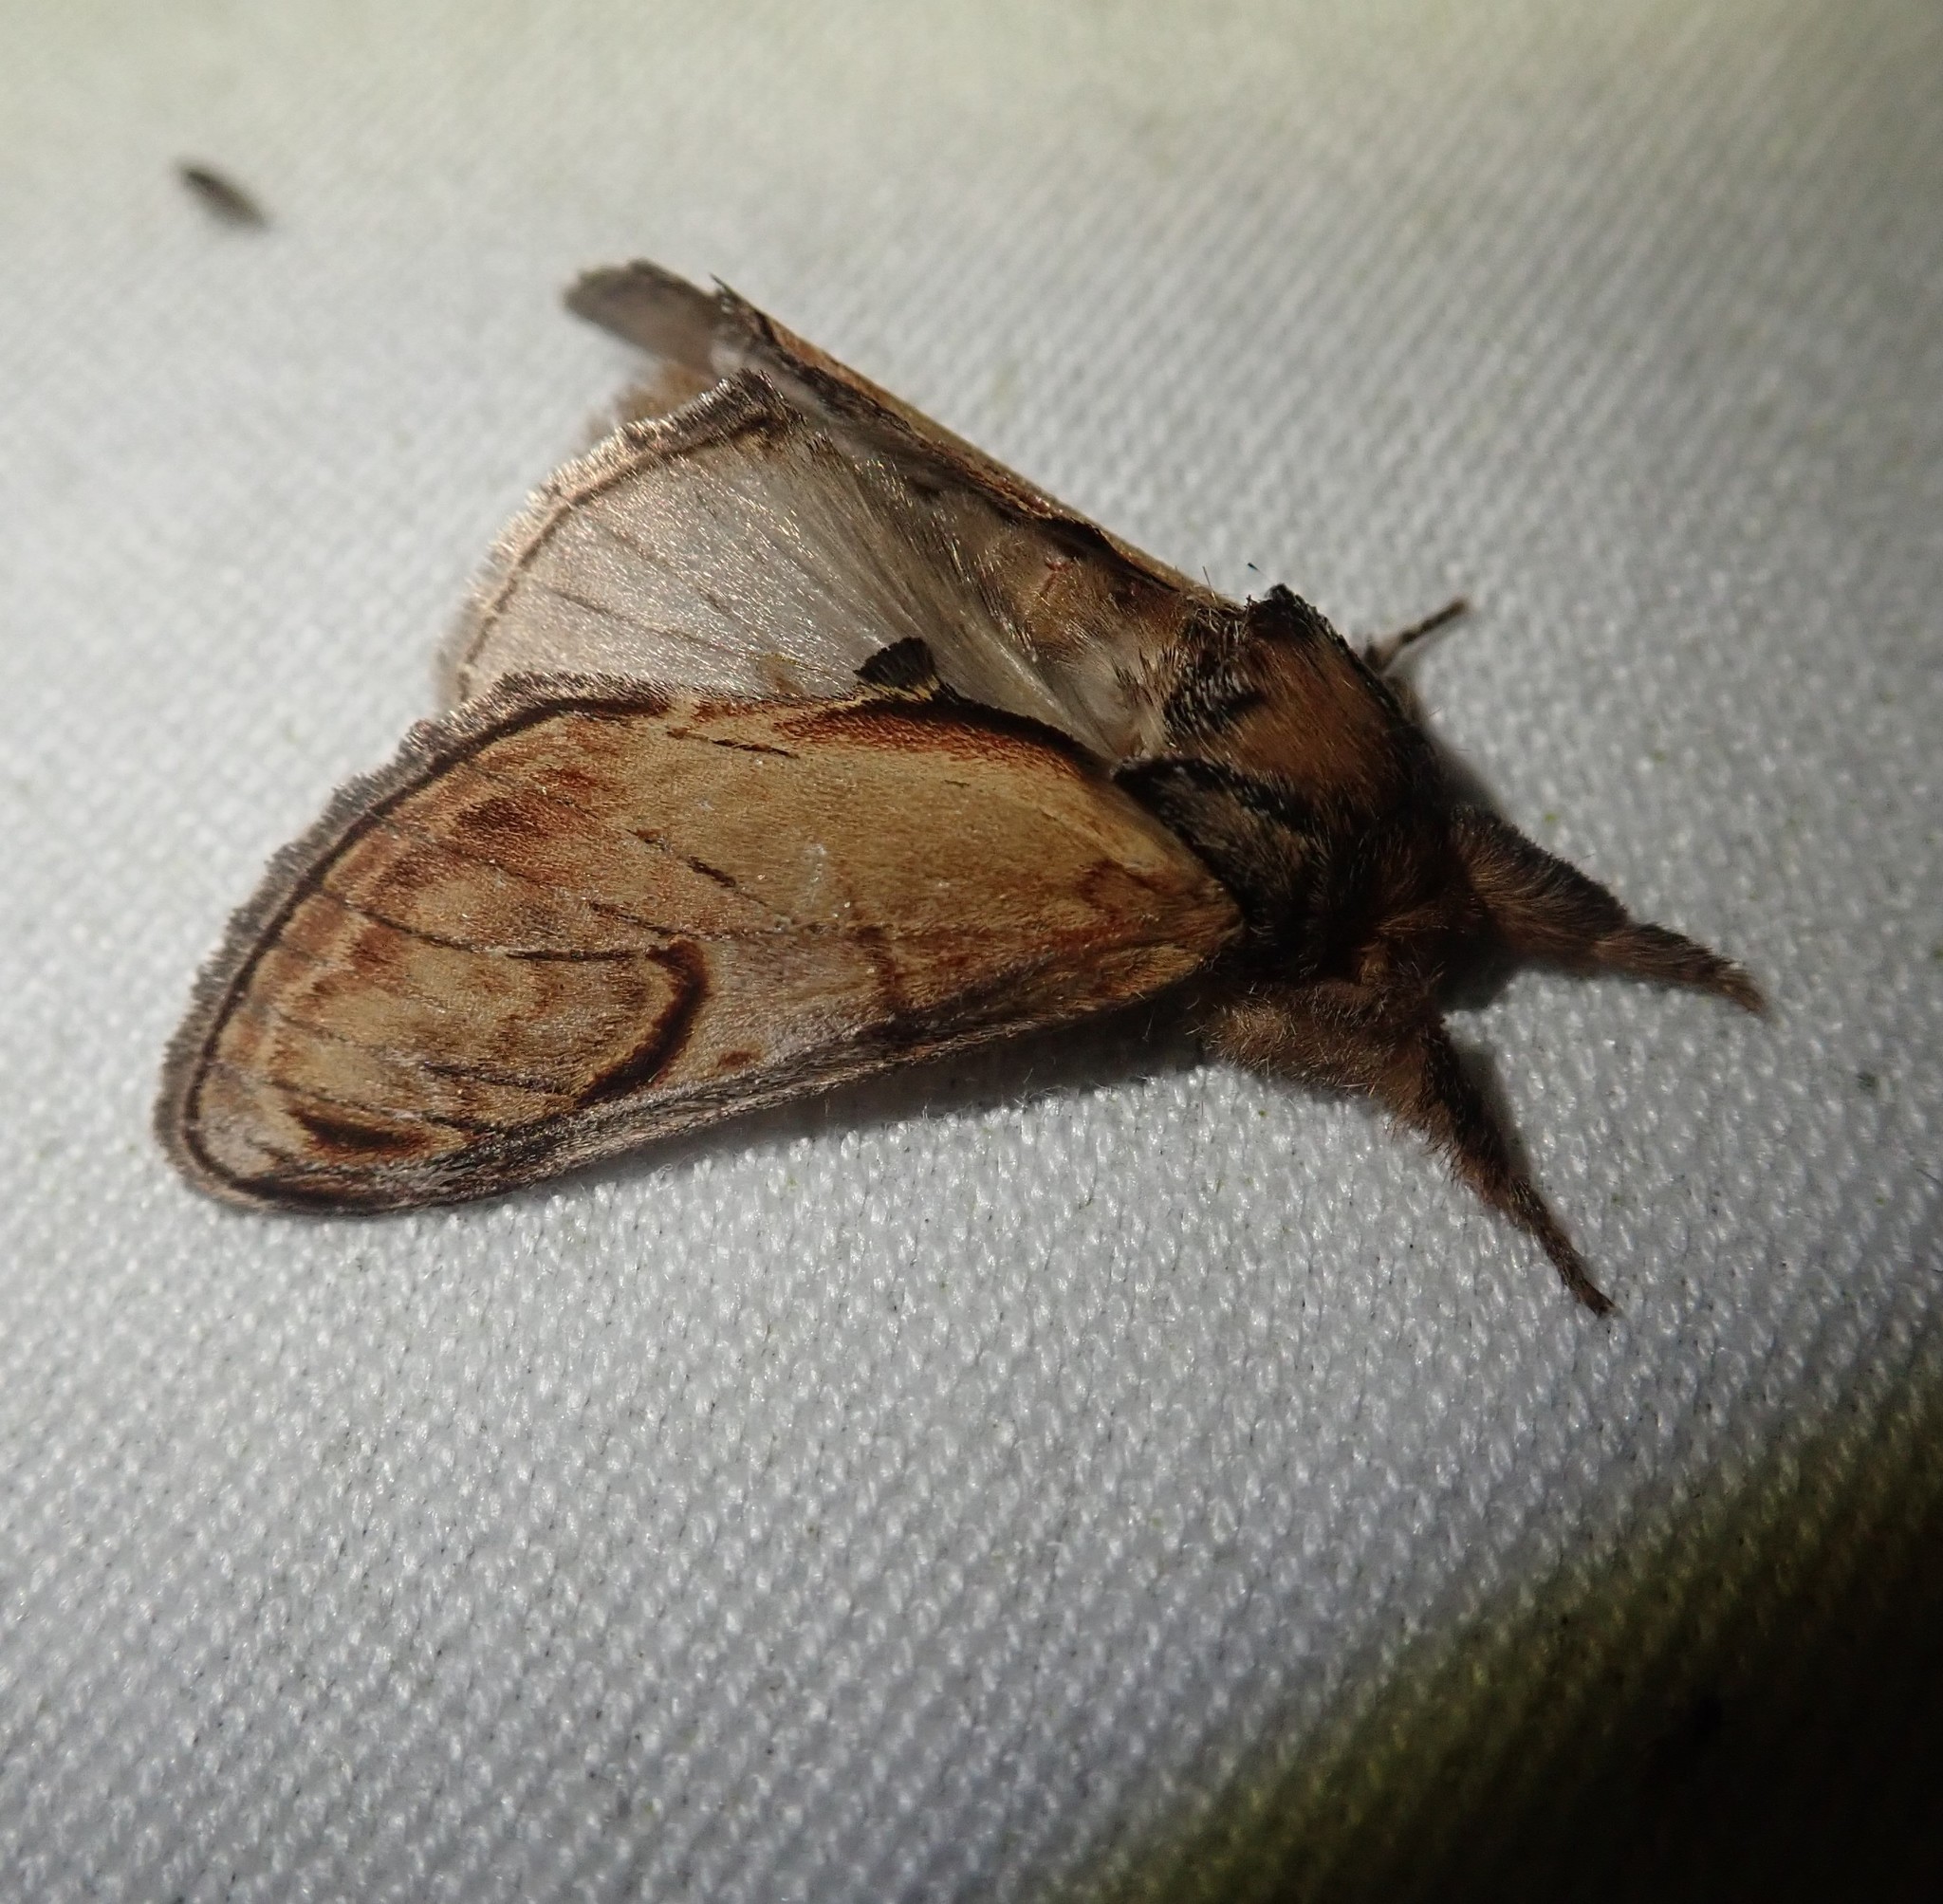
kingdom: Animalia
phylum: Arthropoda
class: Insecta
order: Lepidoptera
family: Notodontidae
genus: Notodonta
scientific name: Notodonta ziczac
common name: Pebble prominent
